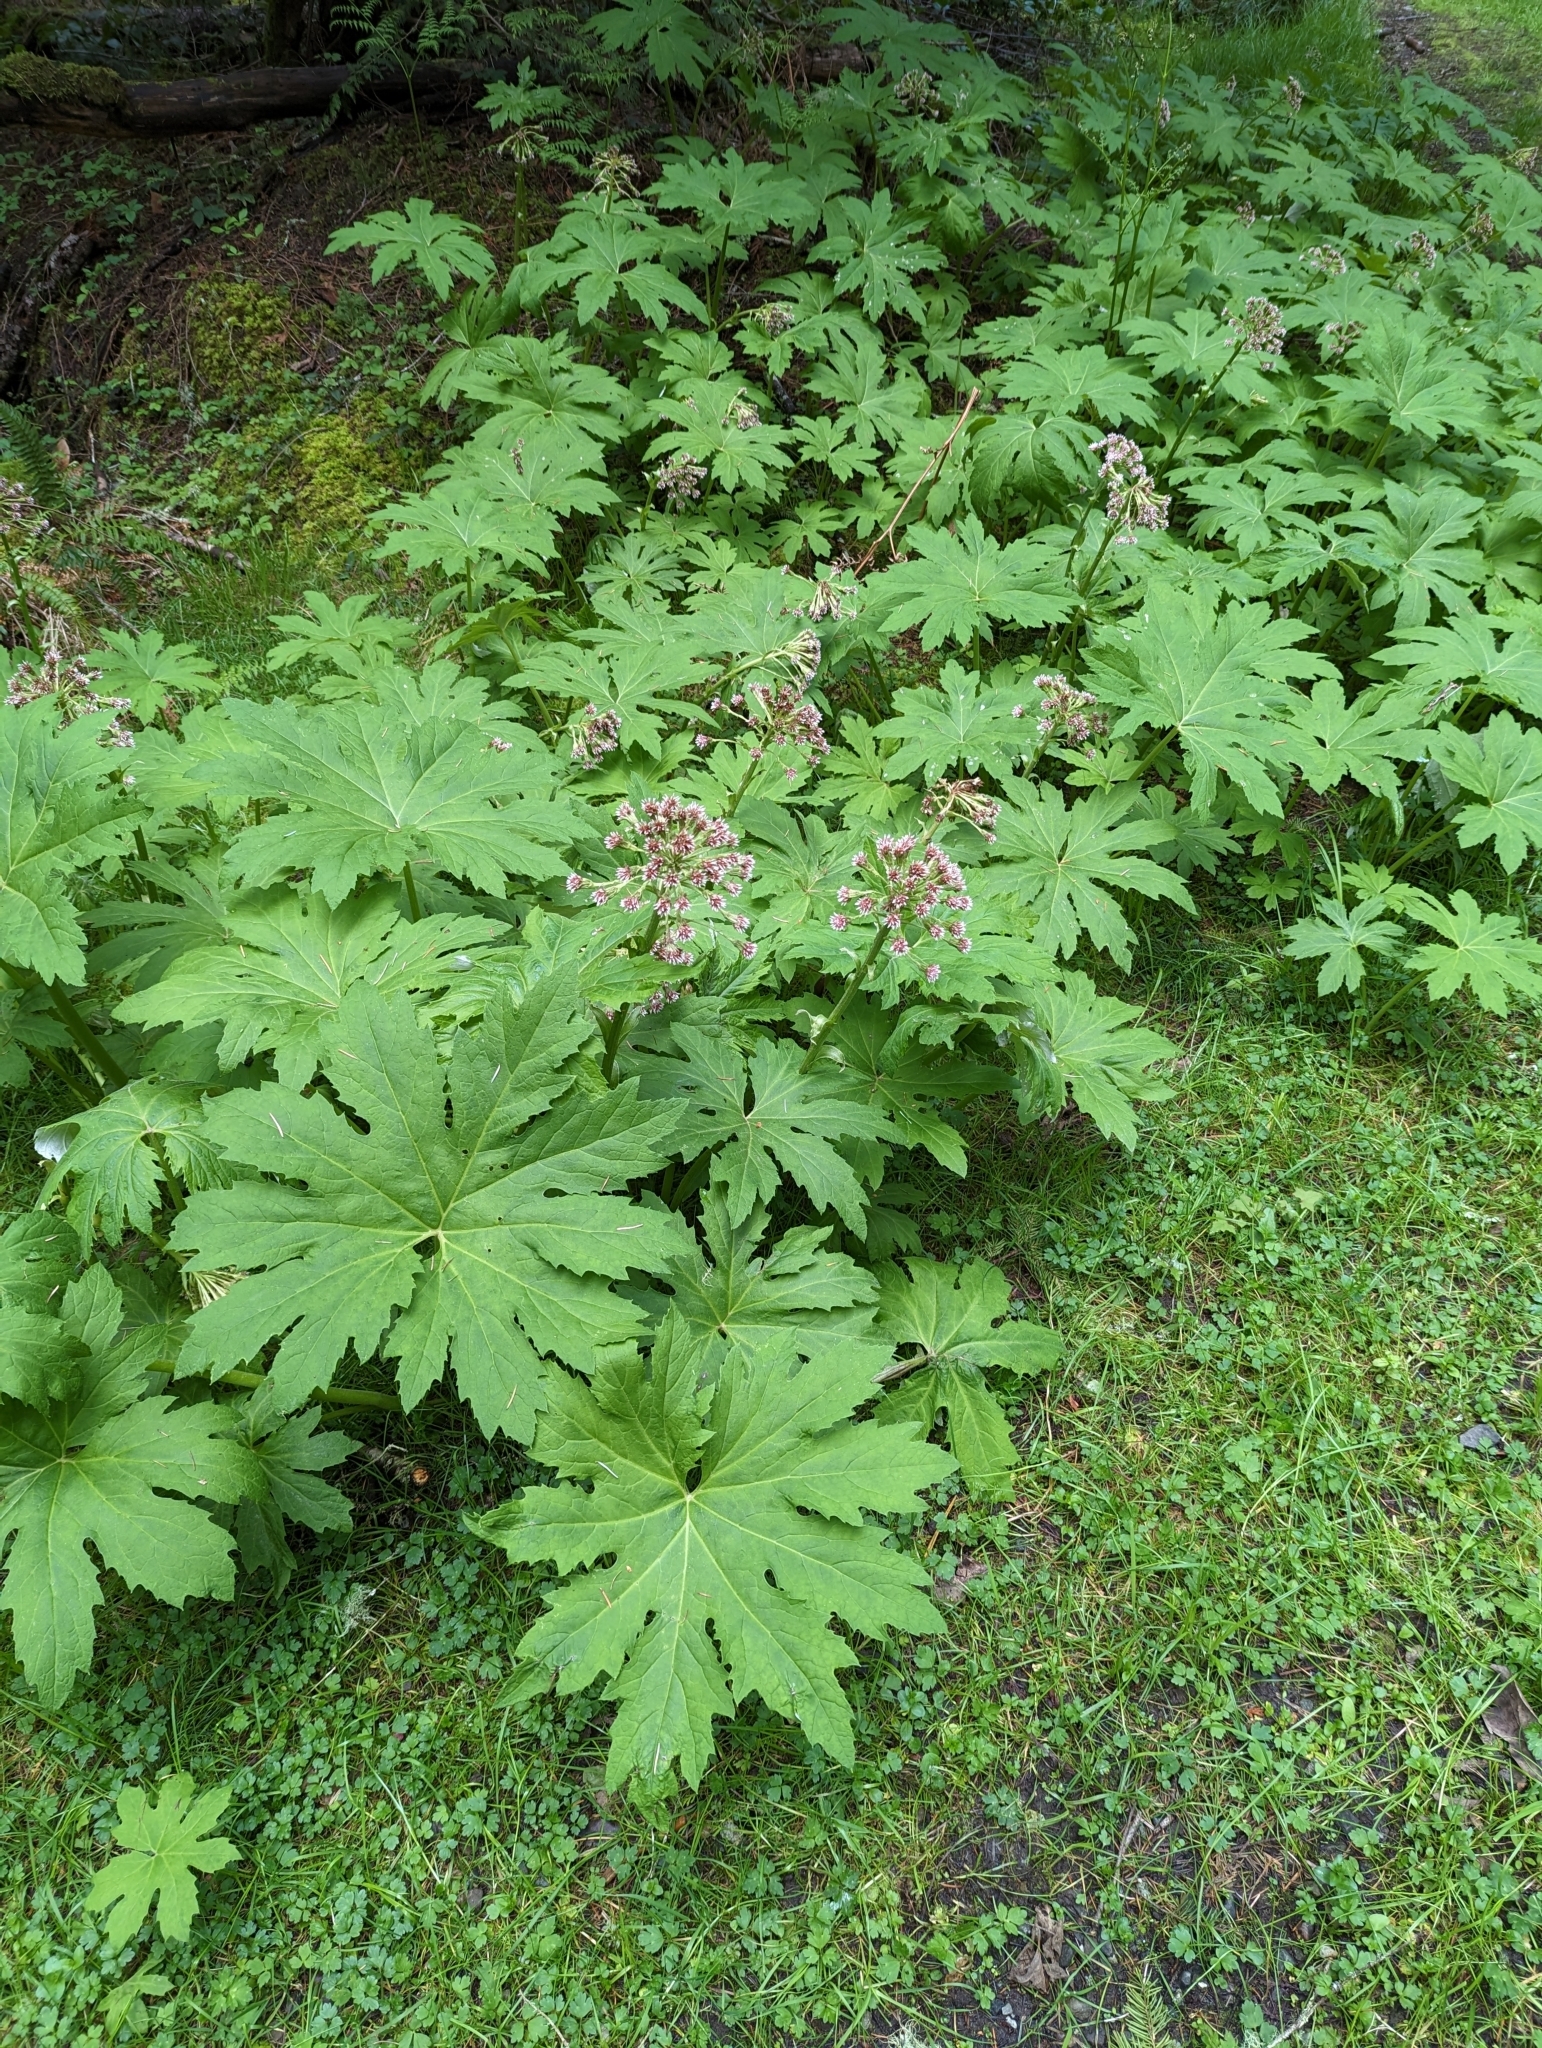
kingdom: Plantae
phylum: Tracheophyta
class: Magnoliopsida
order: Asterales
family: Asteraceae
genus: Petasites
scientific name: Petasites frigidus
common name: Arctic butterbur
